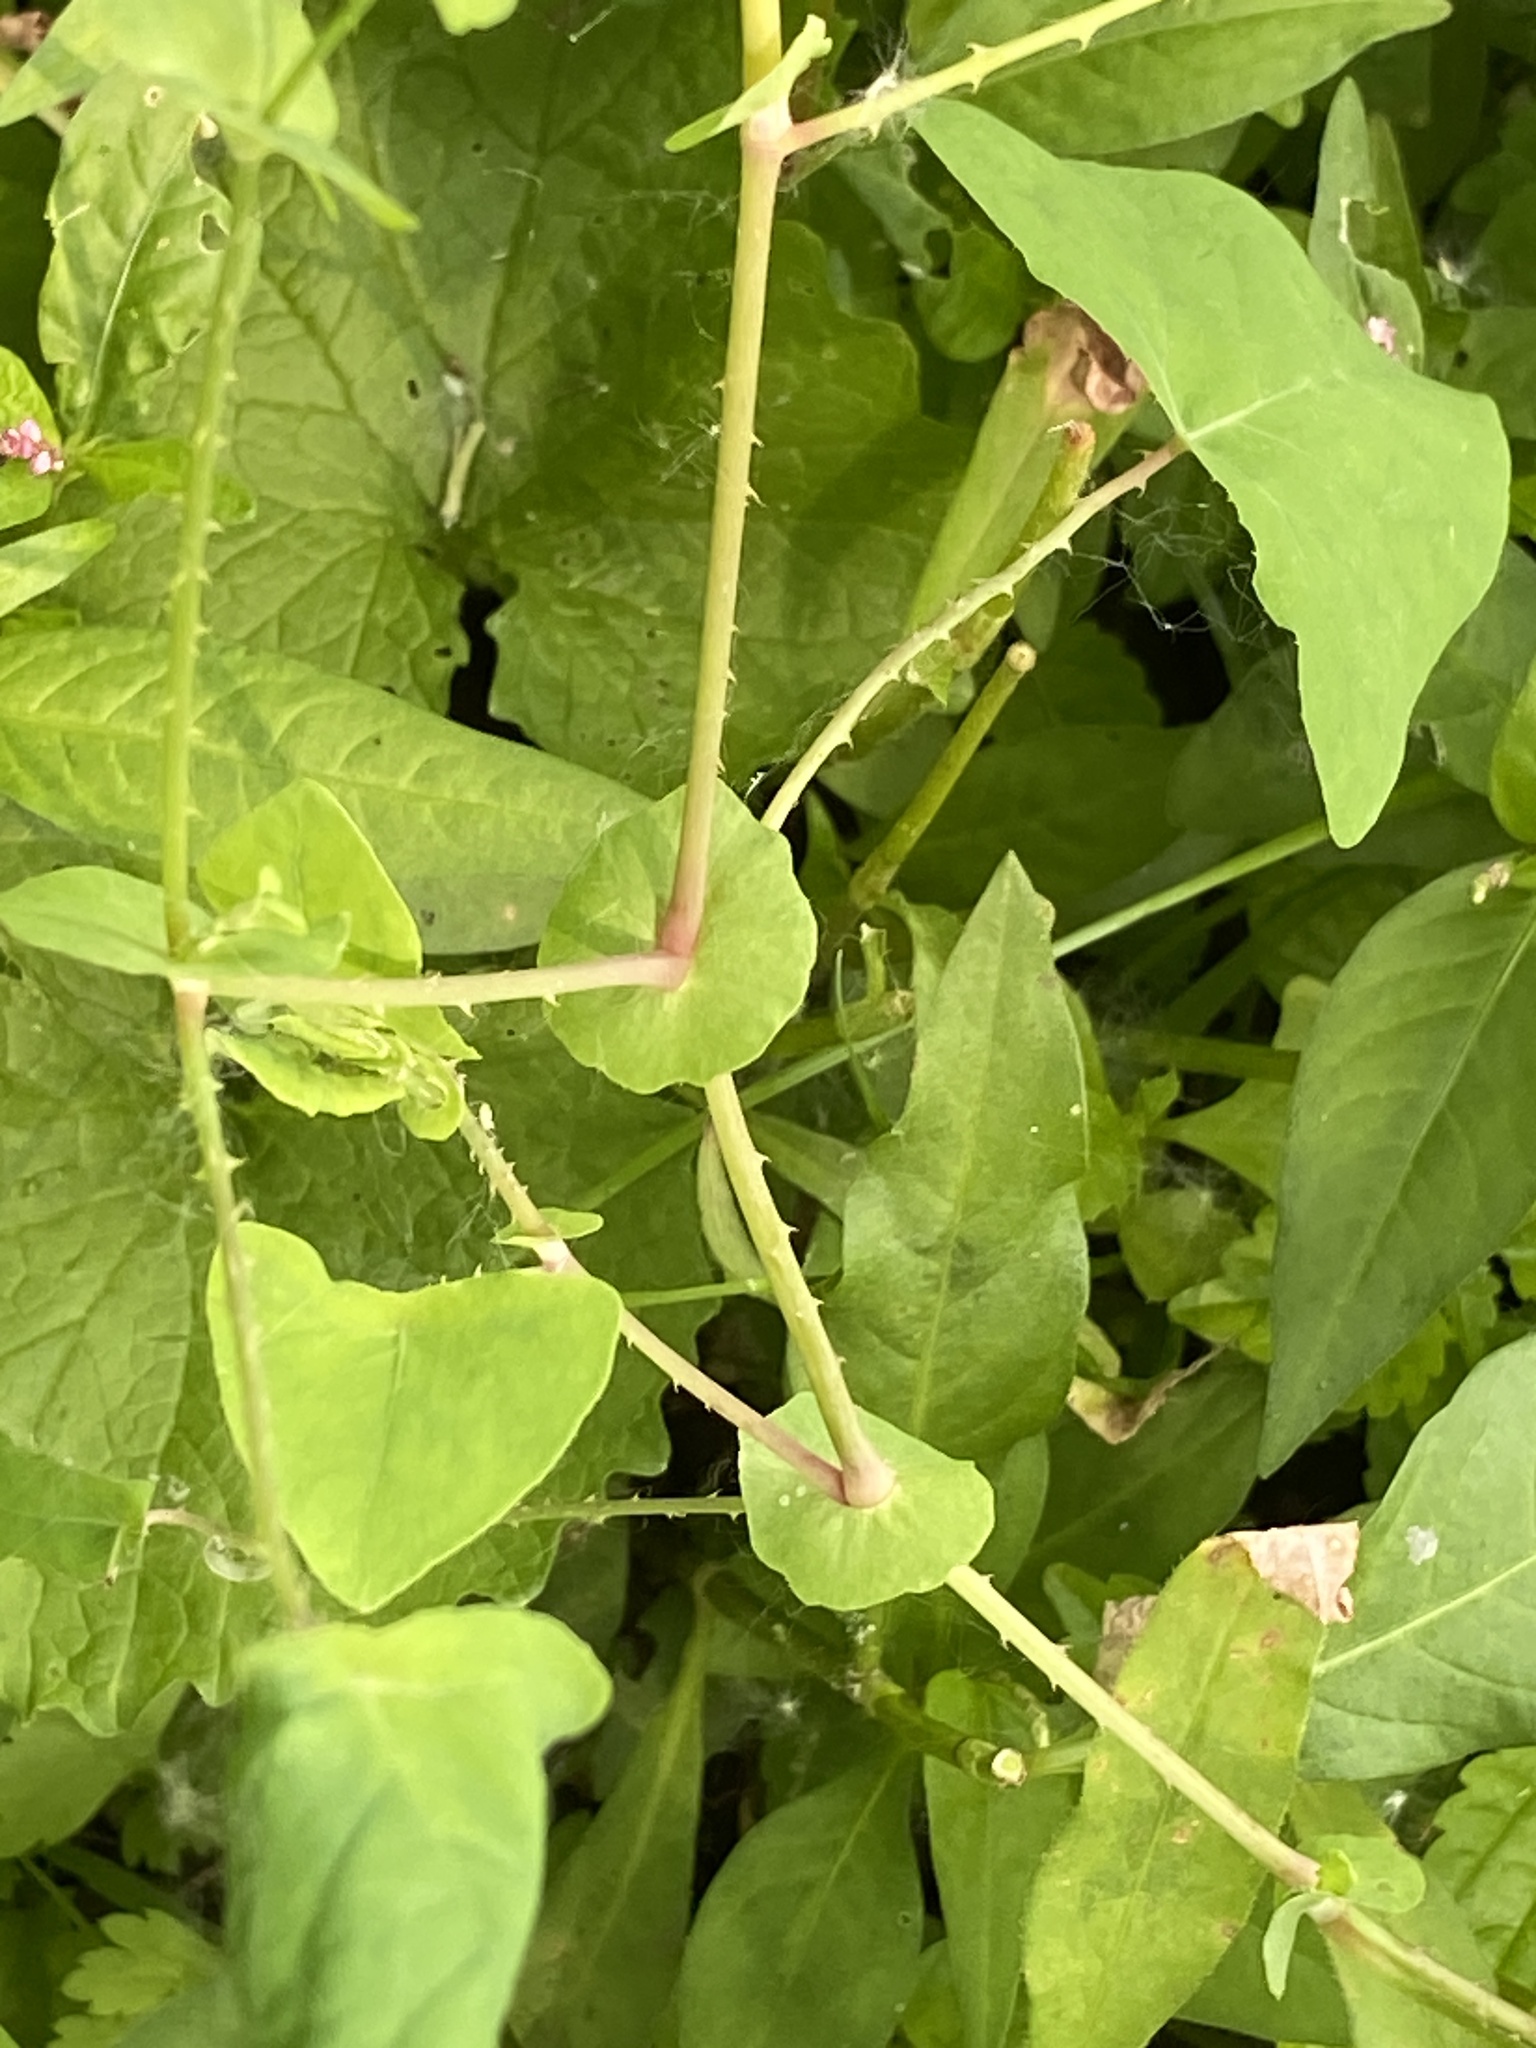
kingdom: Plantae
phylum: Tracheophyta
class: Magnoliopsida
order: Caryophyllales
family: Polygonaceae
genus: Persicaria
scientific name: Persicaria perfoliata
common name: Asiatic tearthumb
